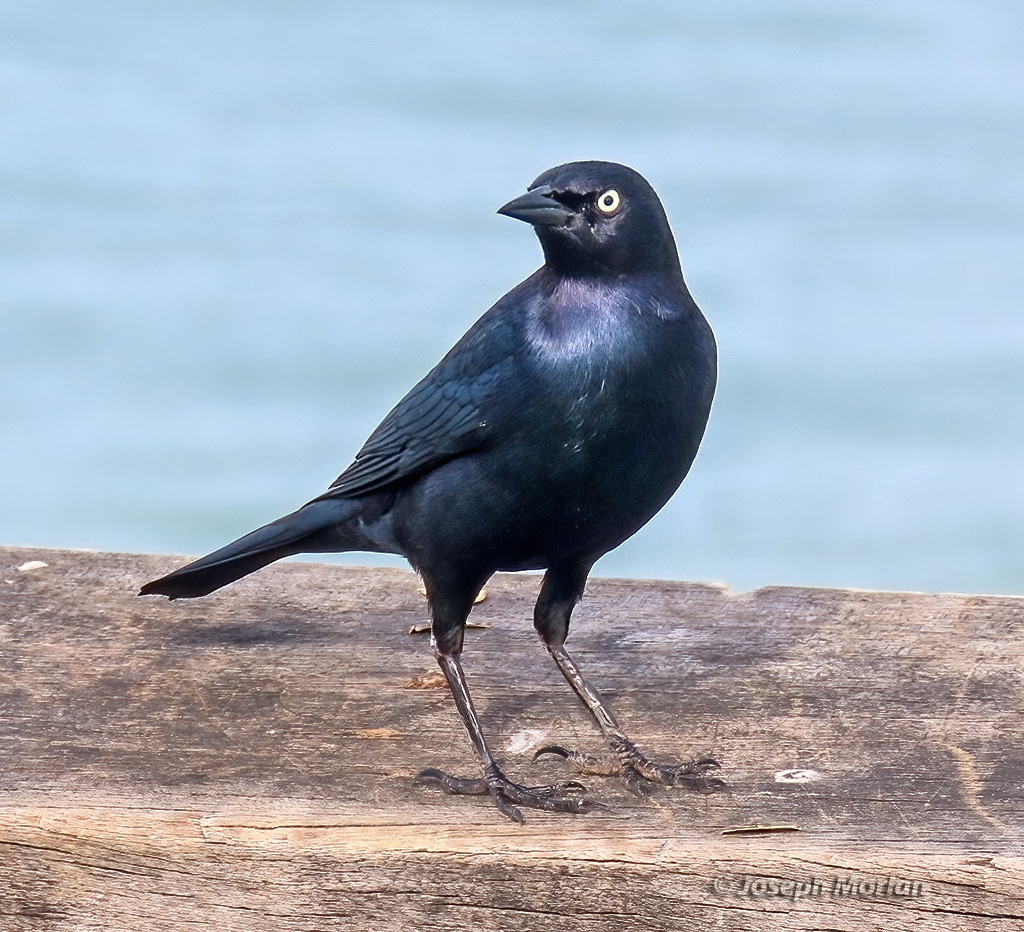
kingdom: Animalia
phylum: Chordata
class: Aves
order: Passeriformes
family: Icteridae
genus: Euphagus
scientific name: Euphagus cyanocephalus
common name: Brewer's blackbird
